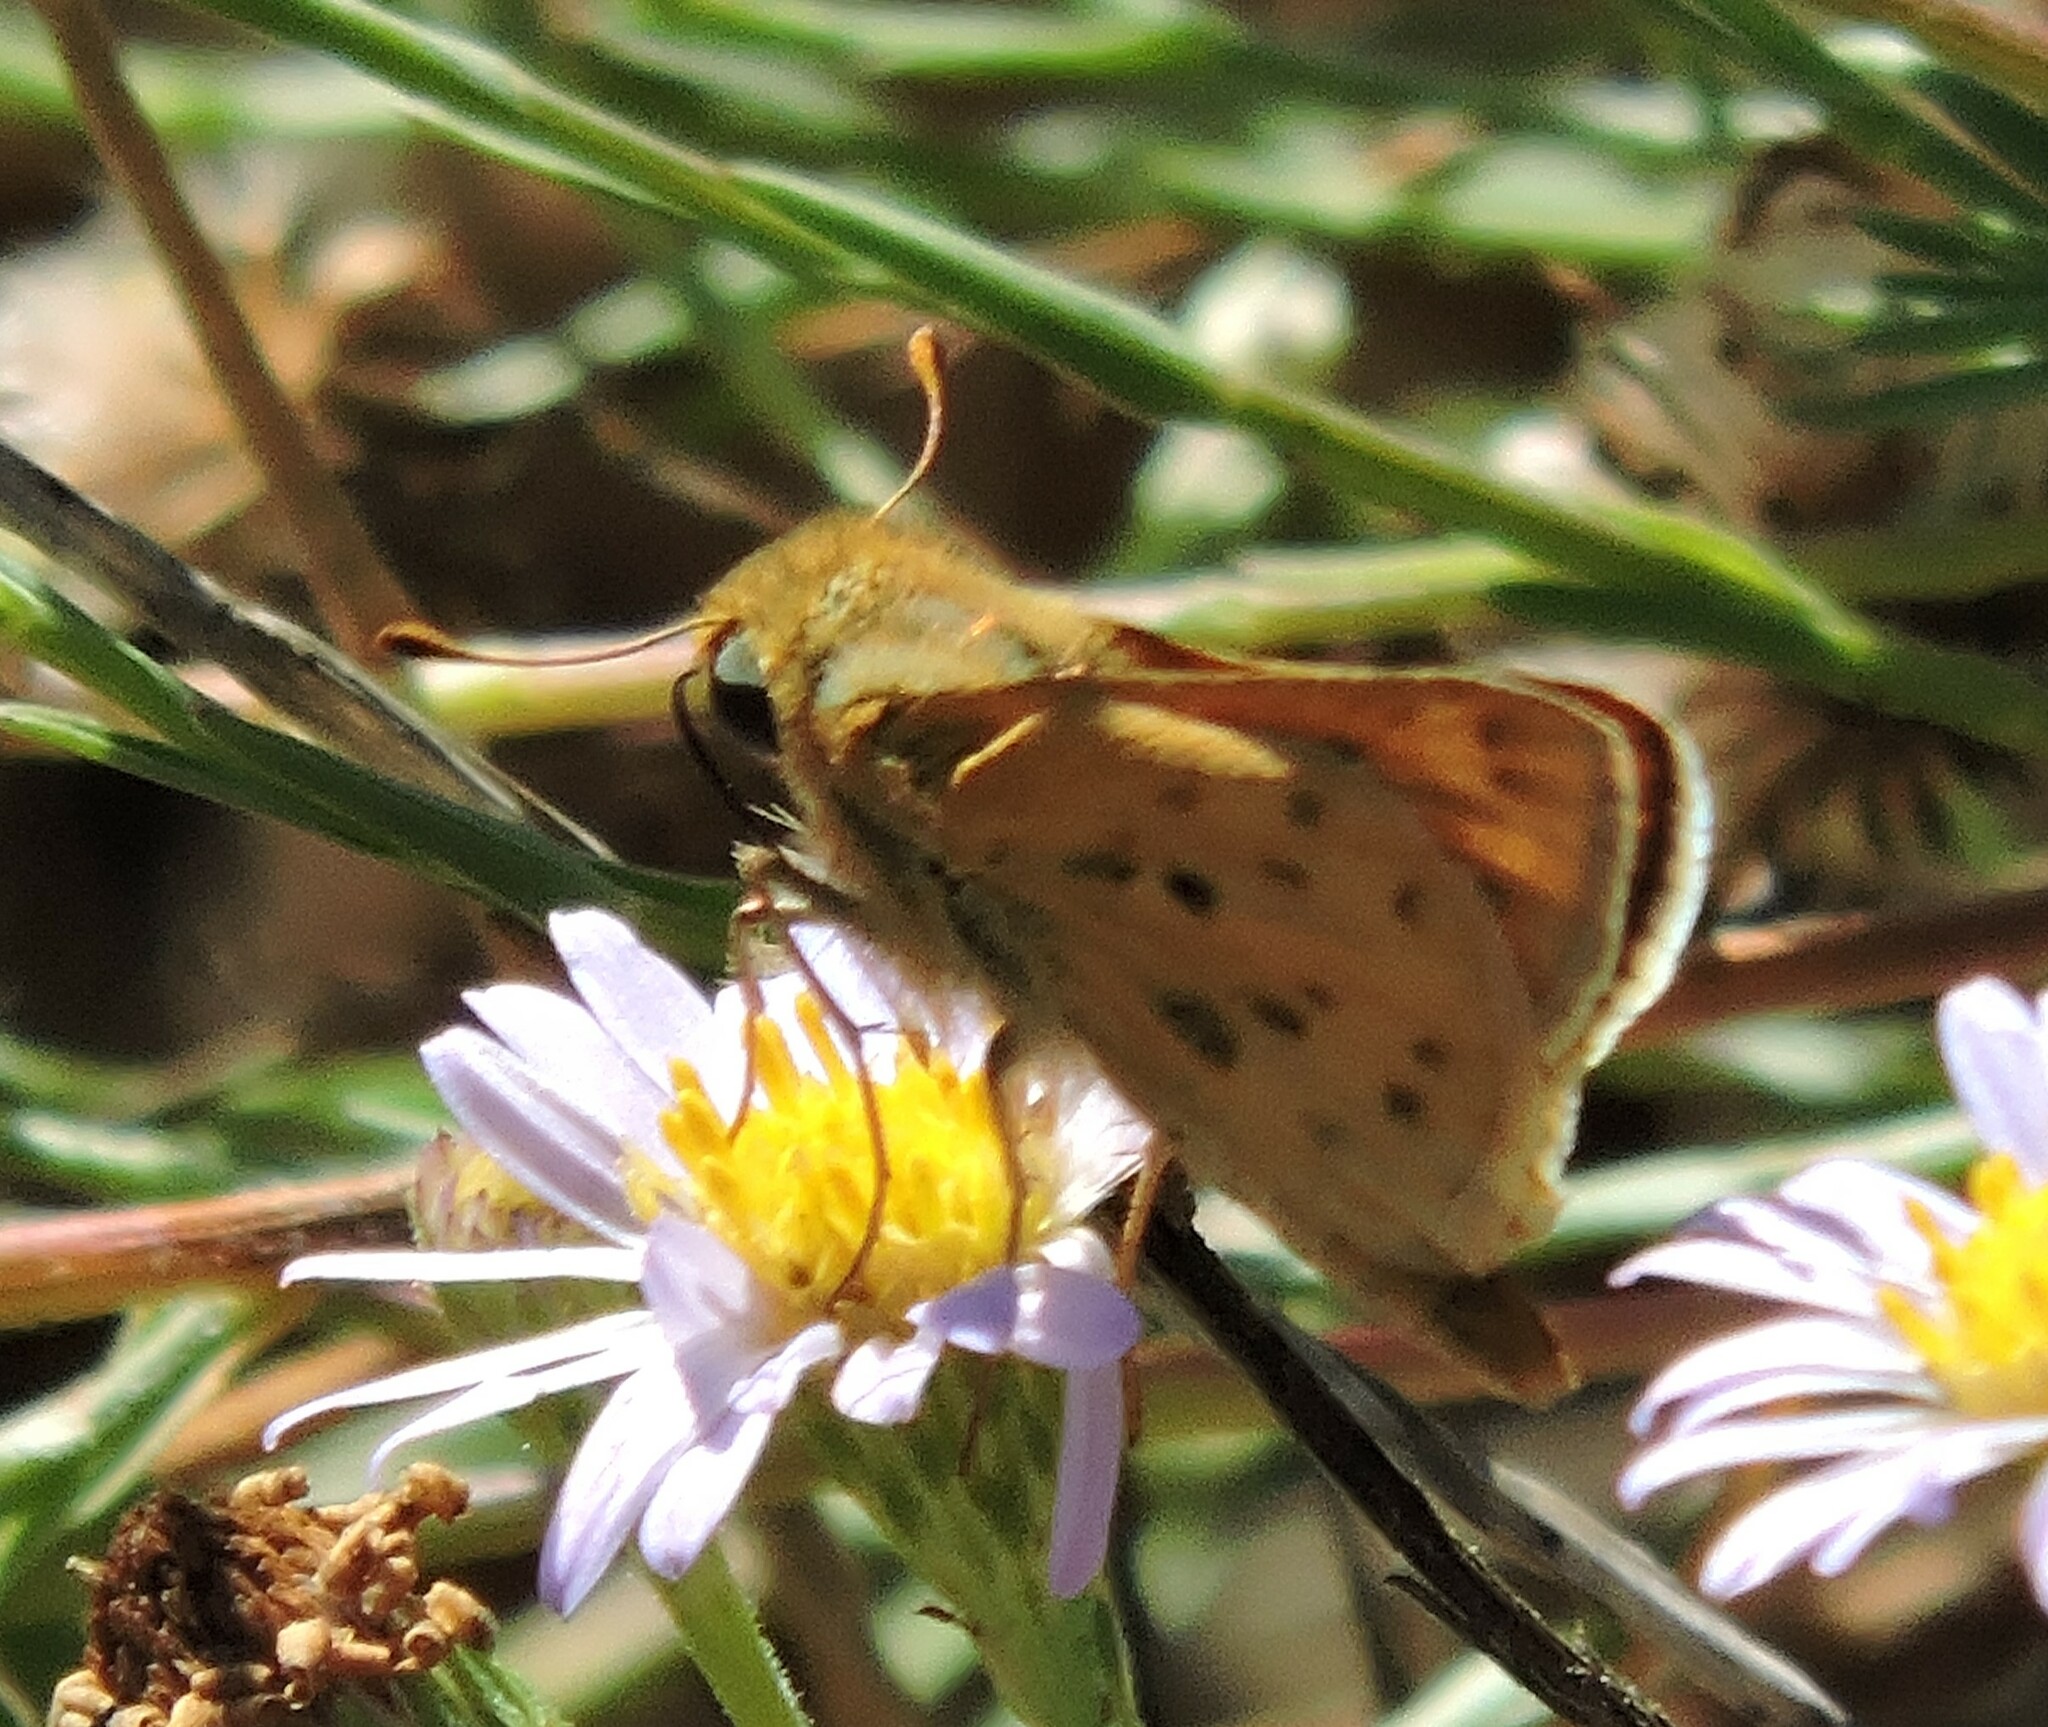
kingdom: Animalia
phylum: Arthropoda
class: Insecta
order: Lepidoptera
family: Hesperiidae
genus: Hylephila
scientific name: Hylephila phyleus
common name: Fiery skipper
